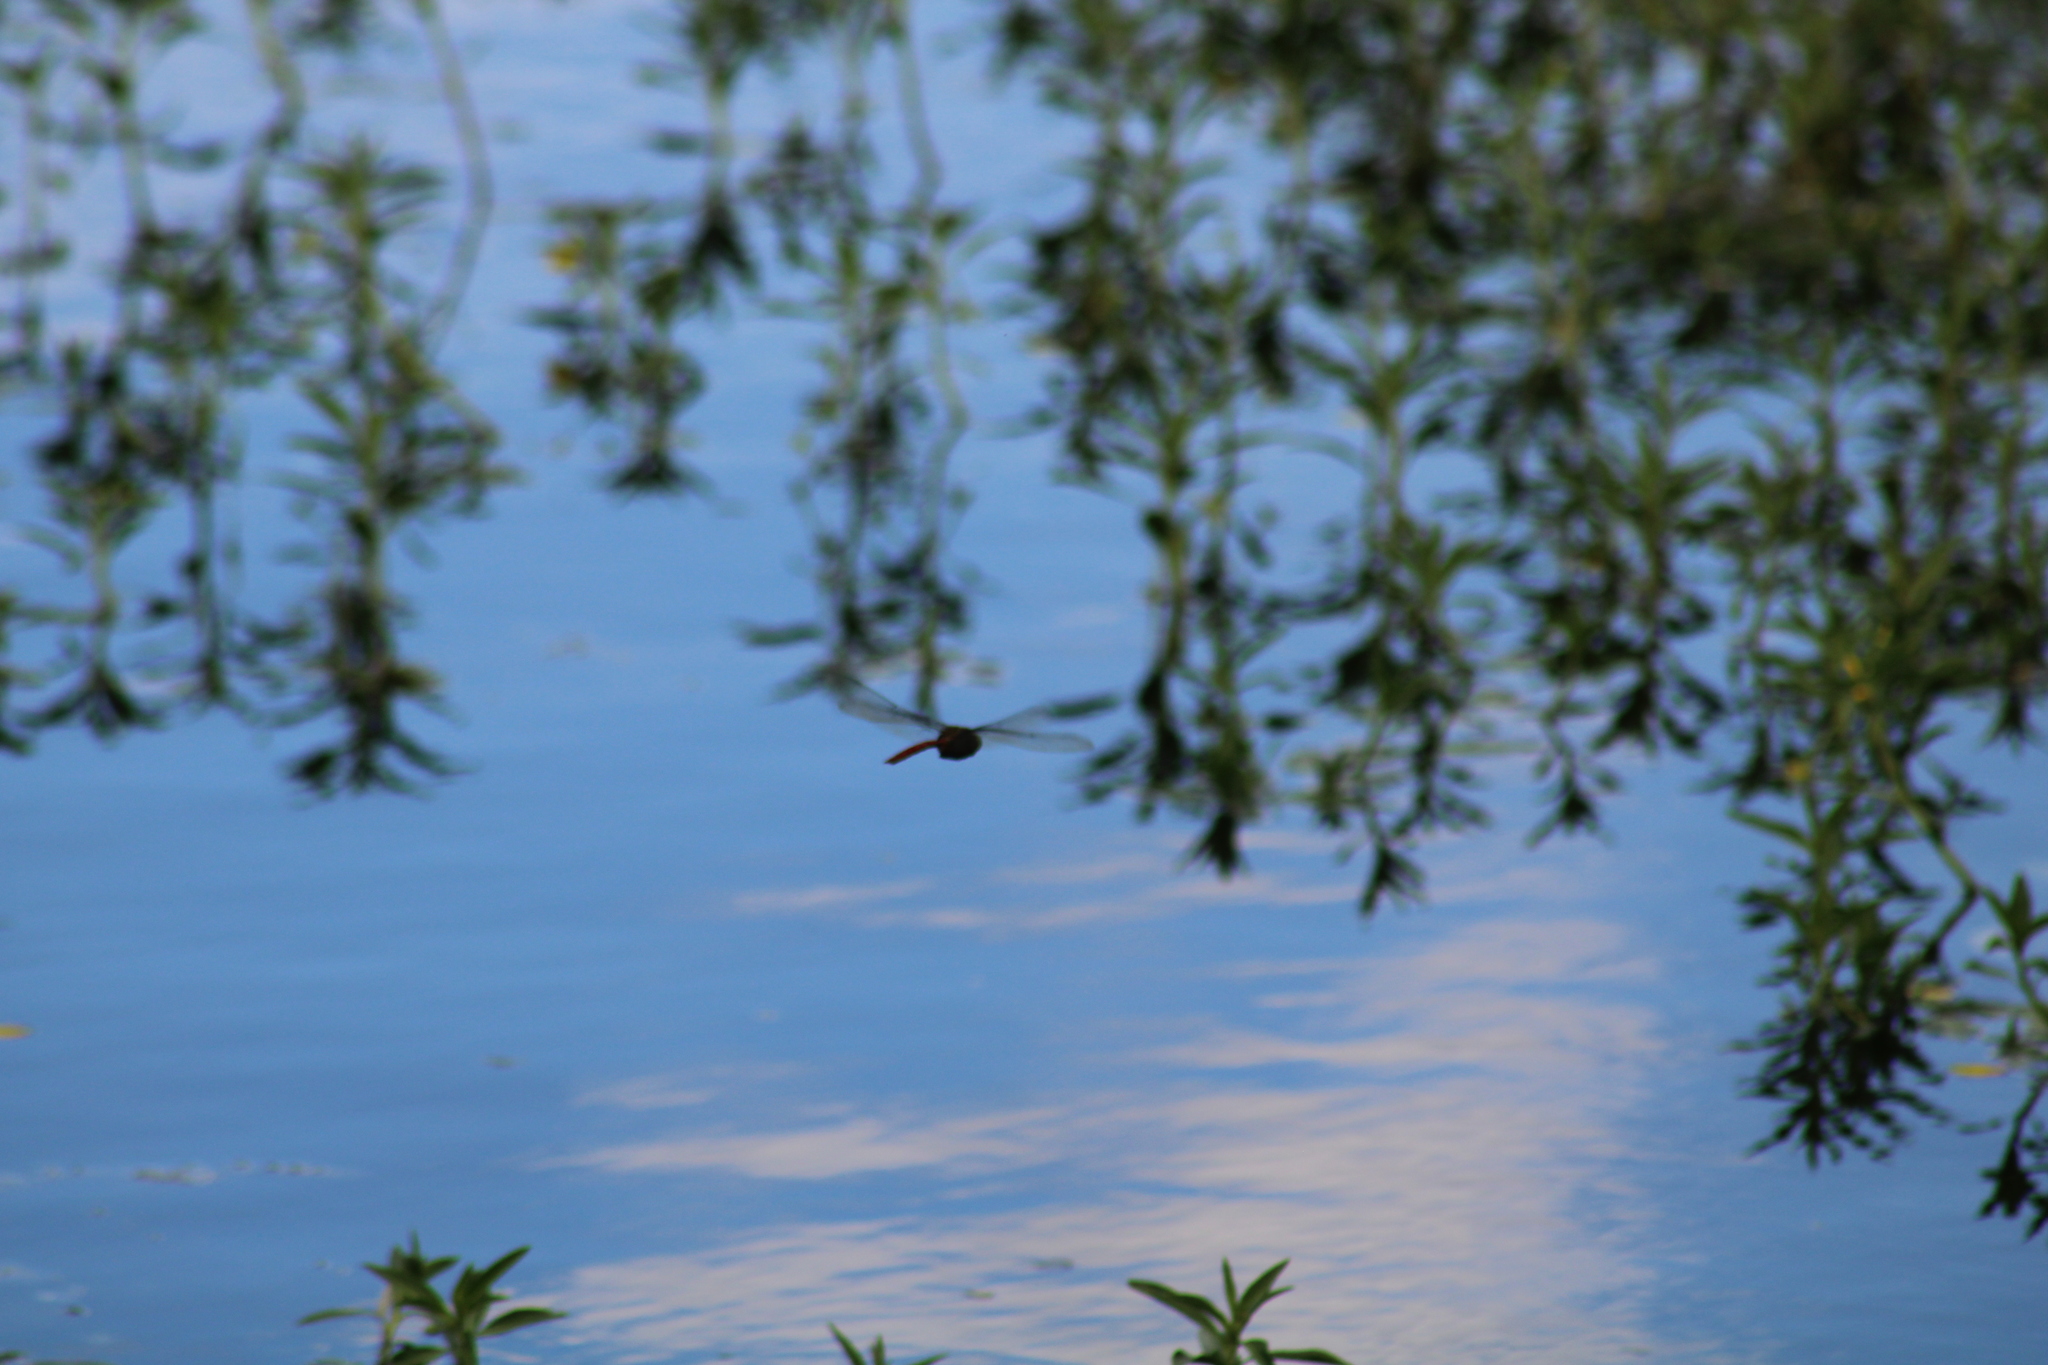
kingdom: Animalia
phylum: Arthropoda
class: Insecta
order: Odonata
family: Aeshnidae
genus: Anax
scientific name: Anax longipes
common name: Comet darner
